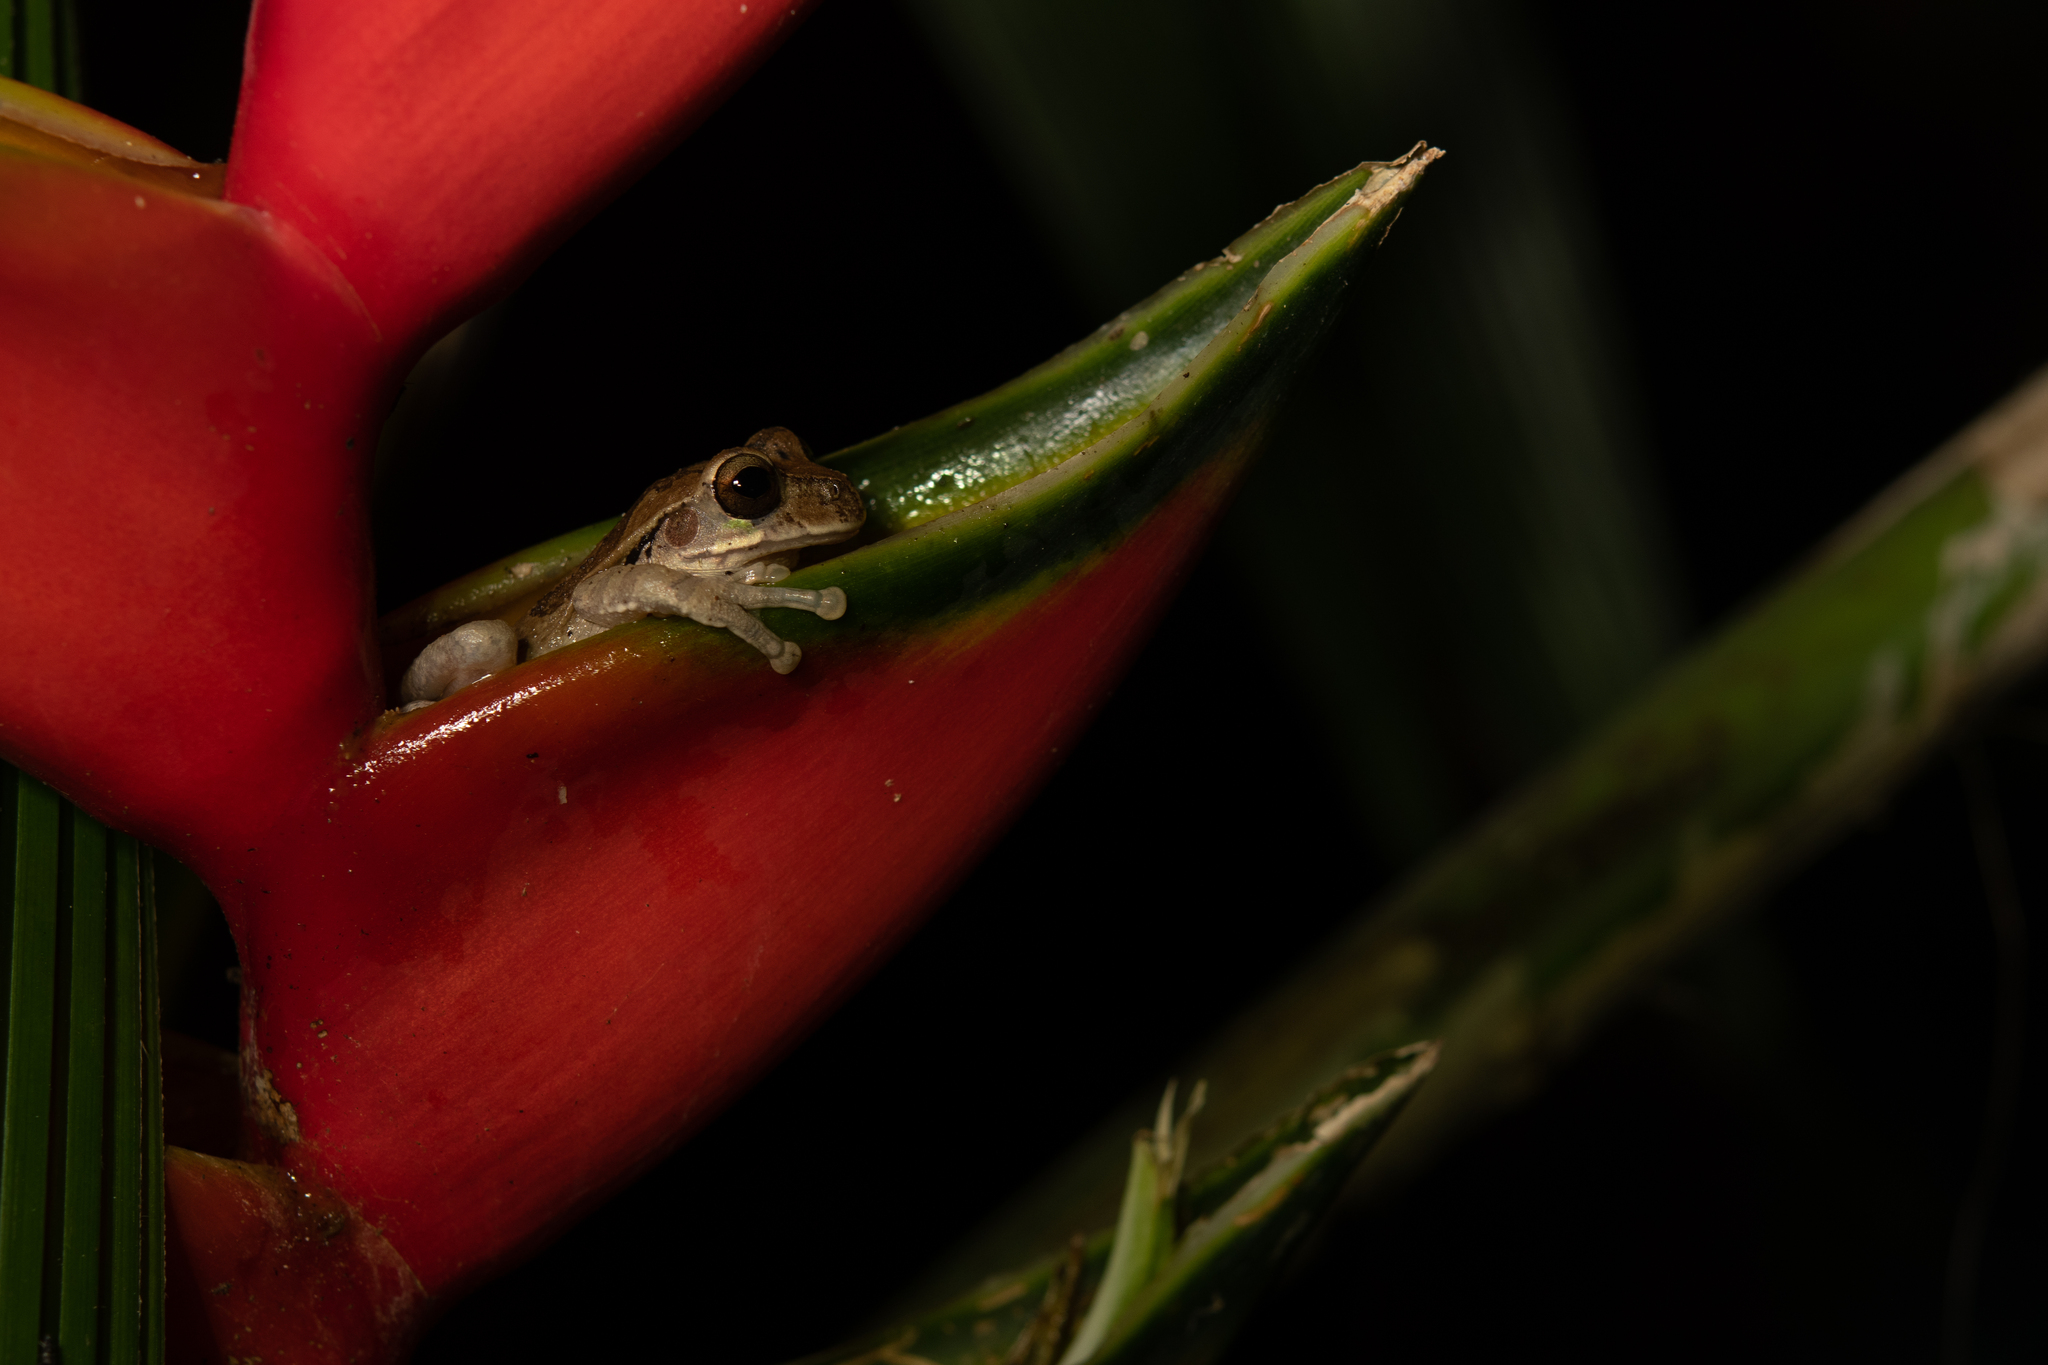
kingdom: Animalia
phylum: Chordata
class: Amphibia
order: Anura
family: Hylidae
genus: Smilisca
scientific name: Smilisca baudinii
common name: Mexican smilisca
